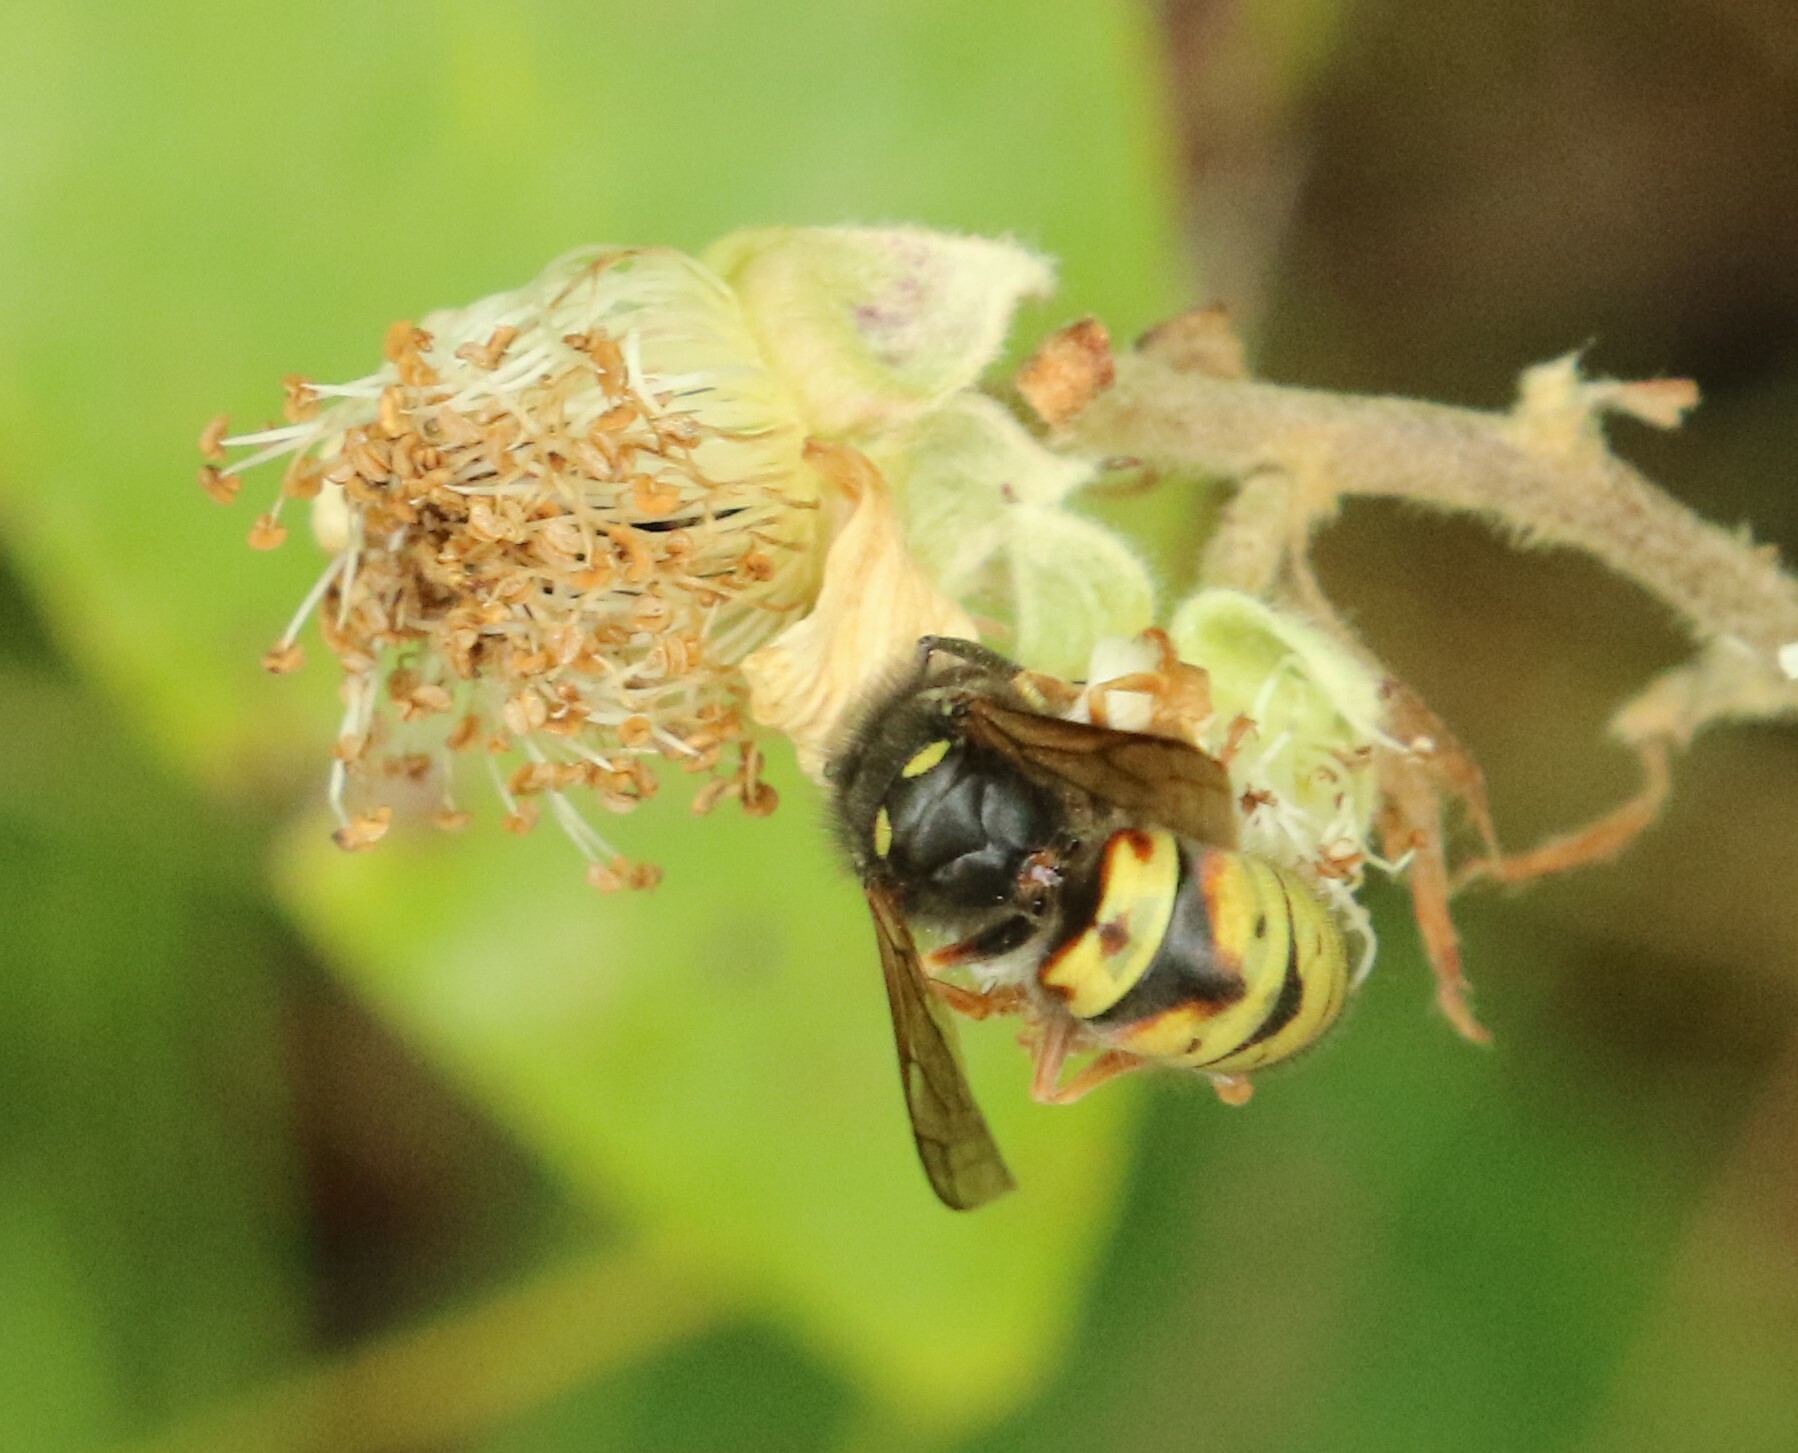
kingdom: Animalia
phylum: Arthropoda
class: Insecta
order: Hymenoptera
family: Vespidae
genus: Vespula
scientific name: Vespula rufa
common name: Red wasp
